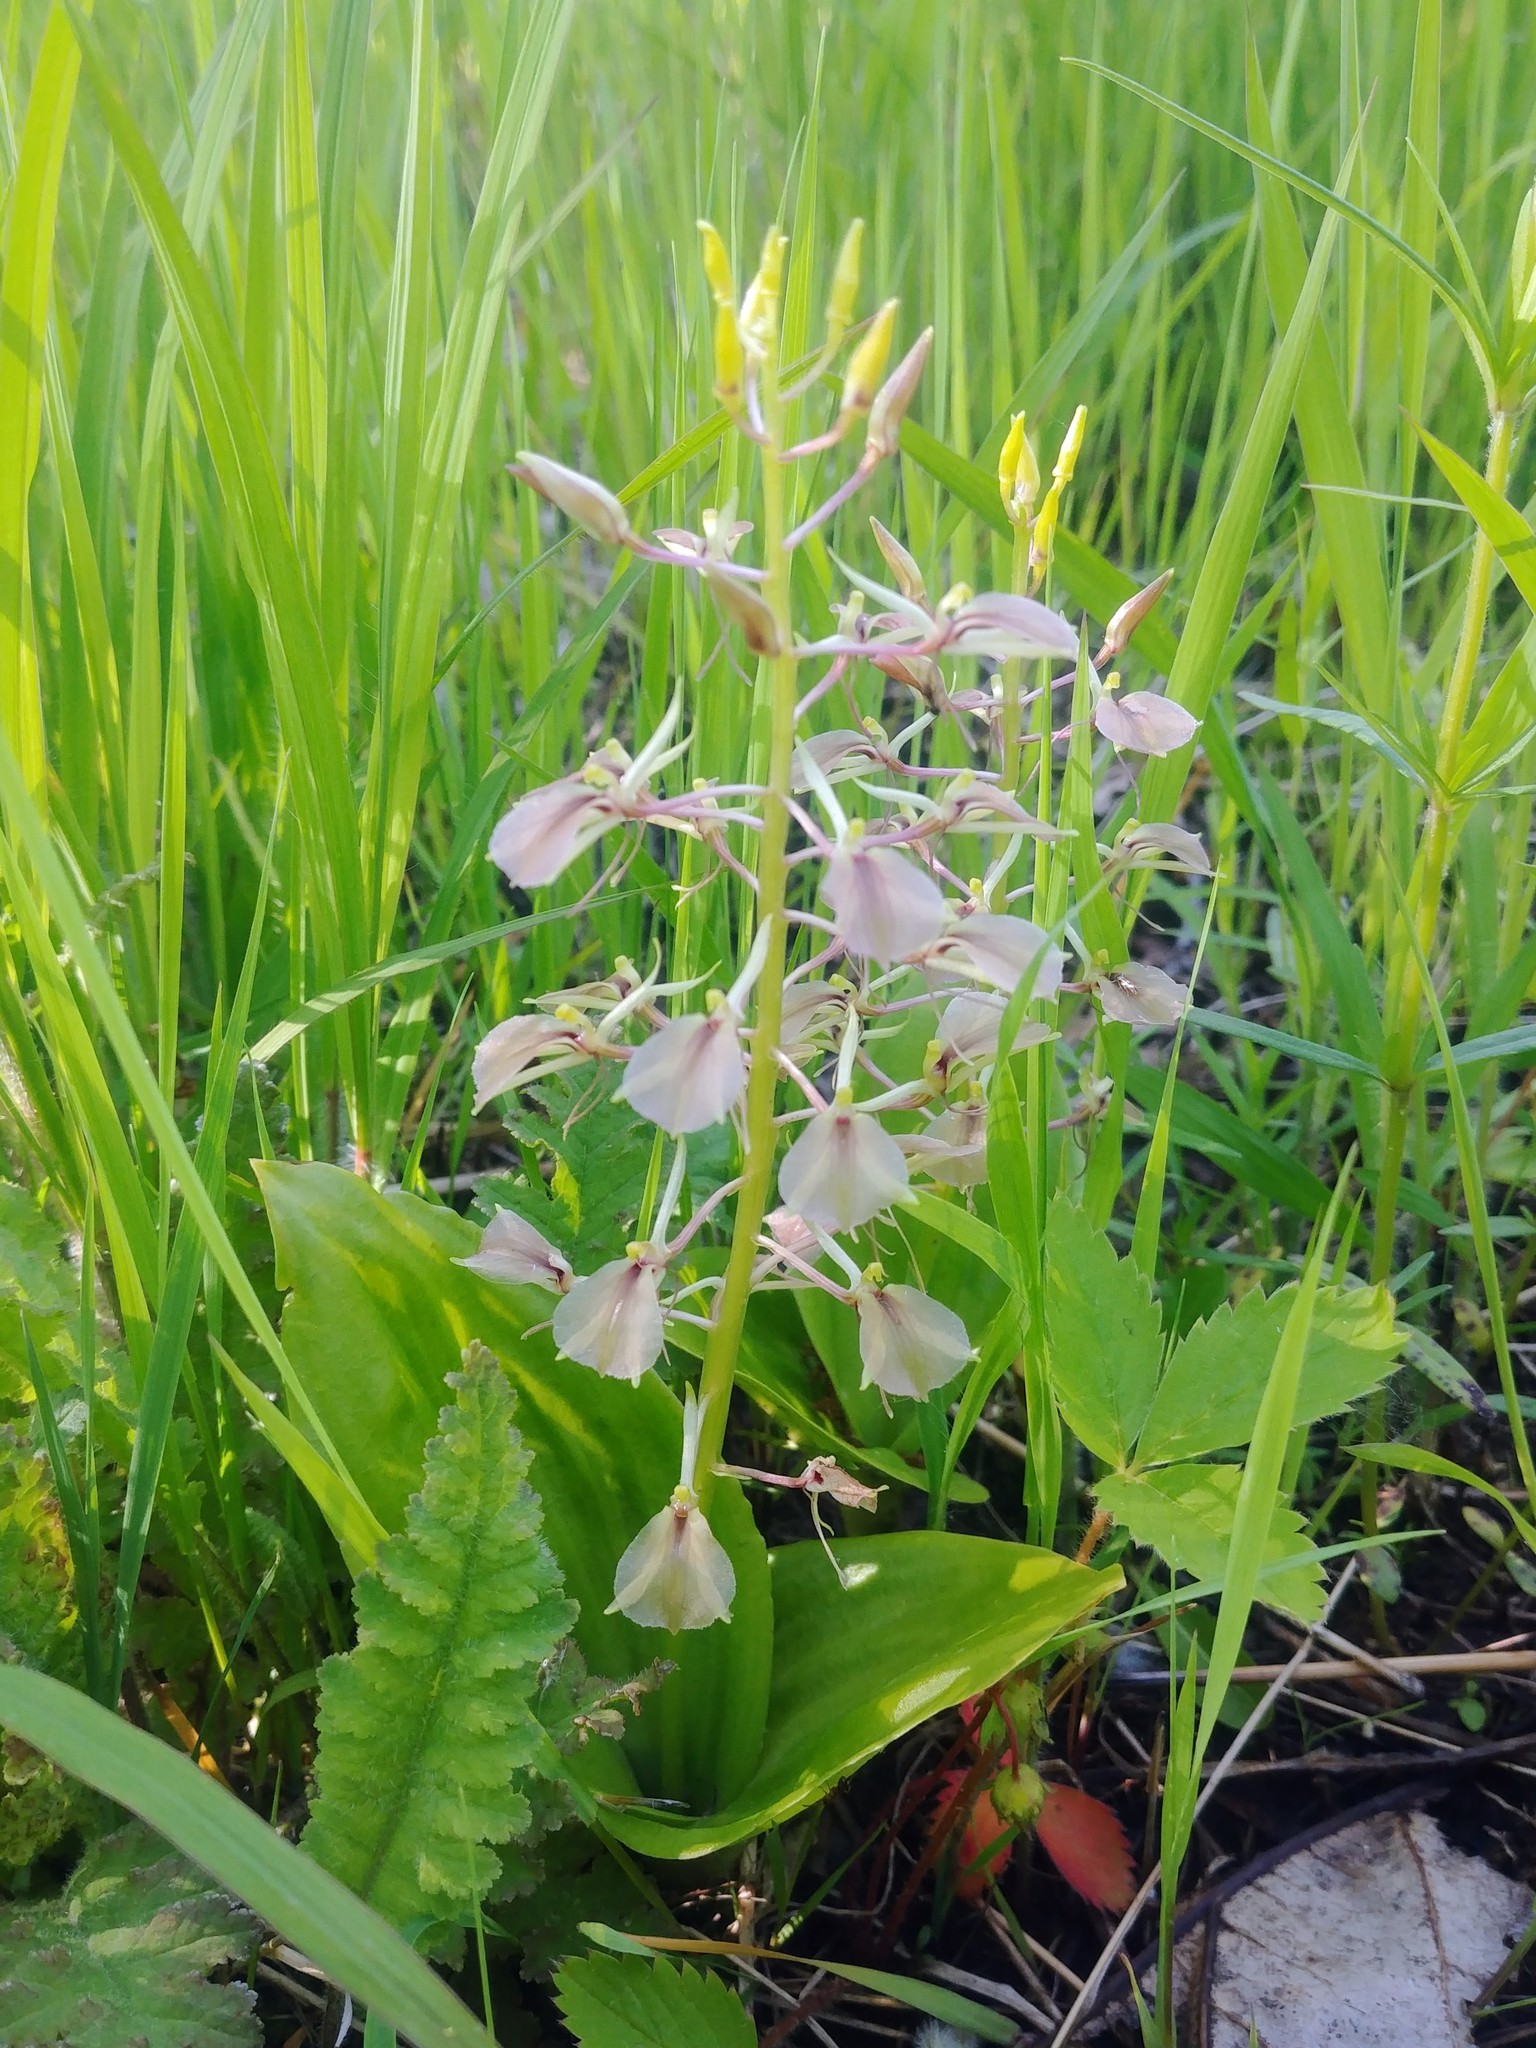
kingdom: Plantae
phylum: Tracheophyta
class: Liliopsida
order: Asparagales
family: Orchidaceae
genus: Liparis
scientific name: Liparis liliifolia
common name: Brown wide-lip orchid
